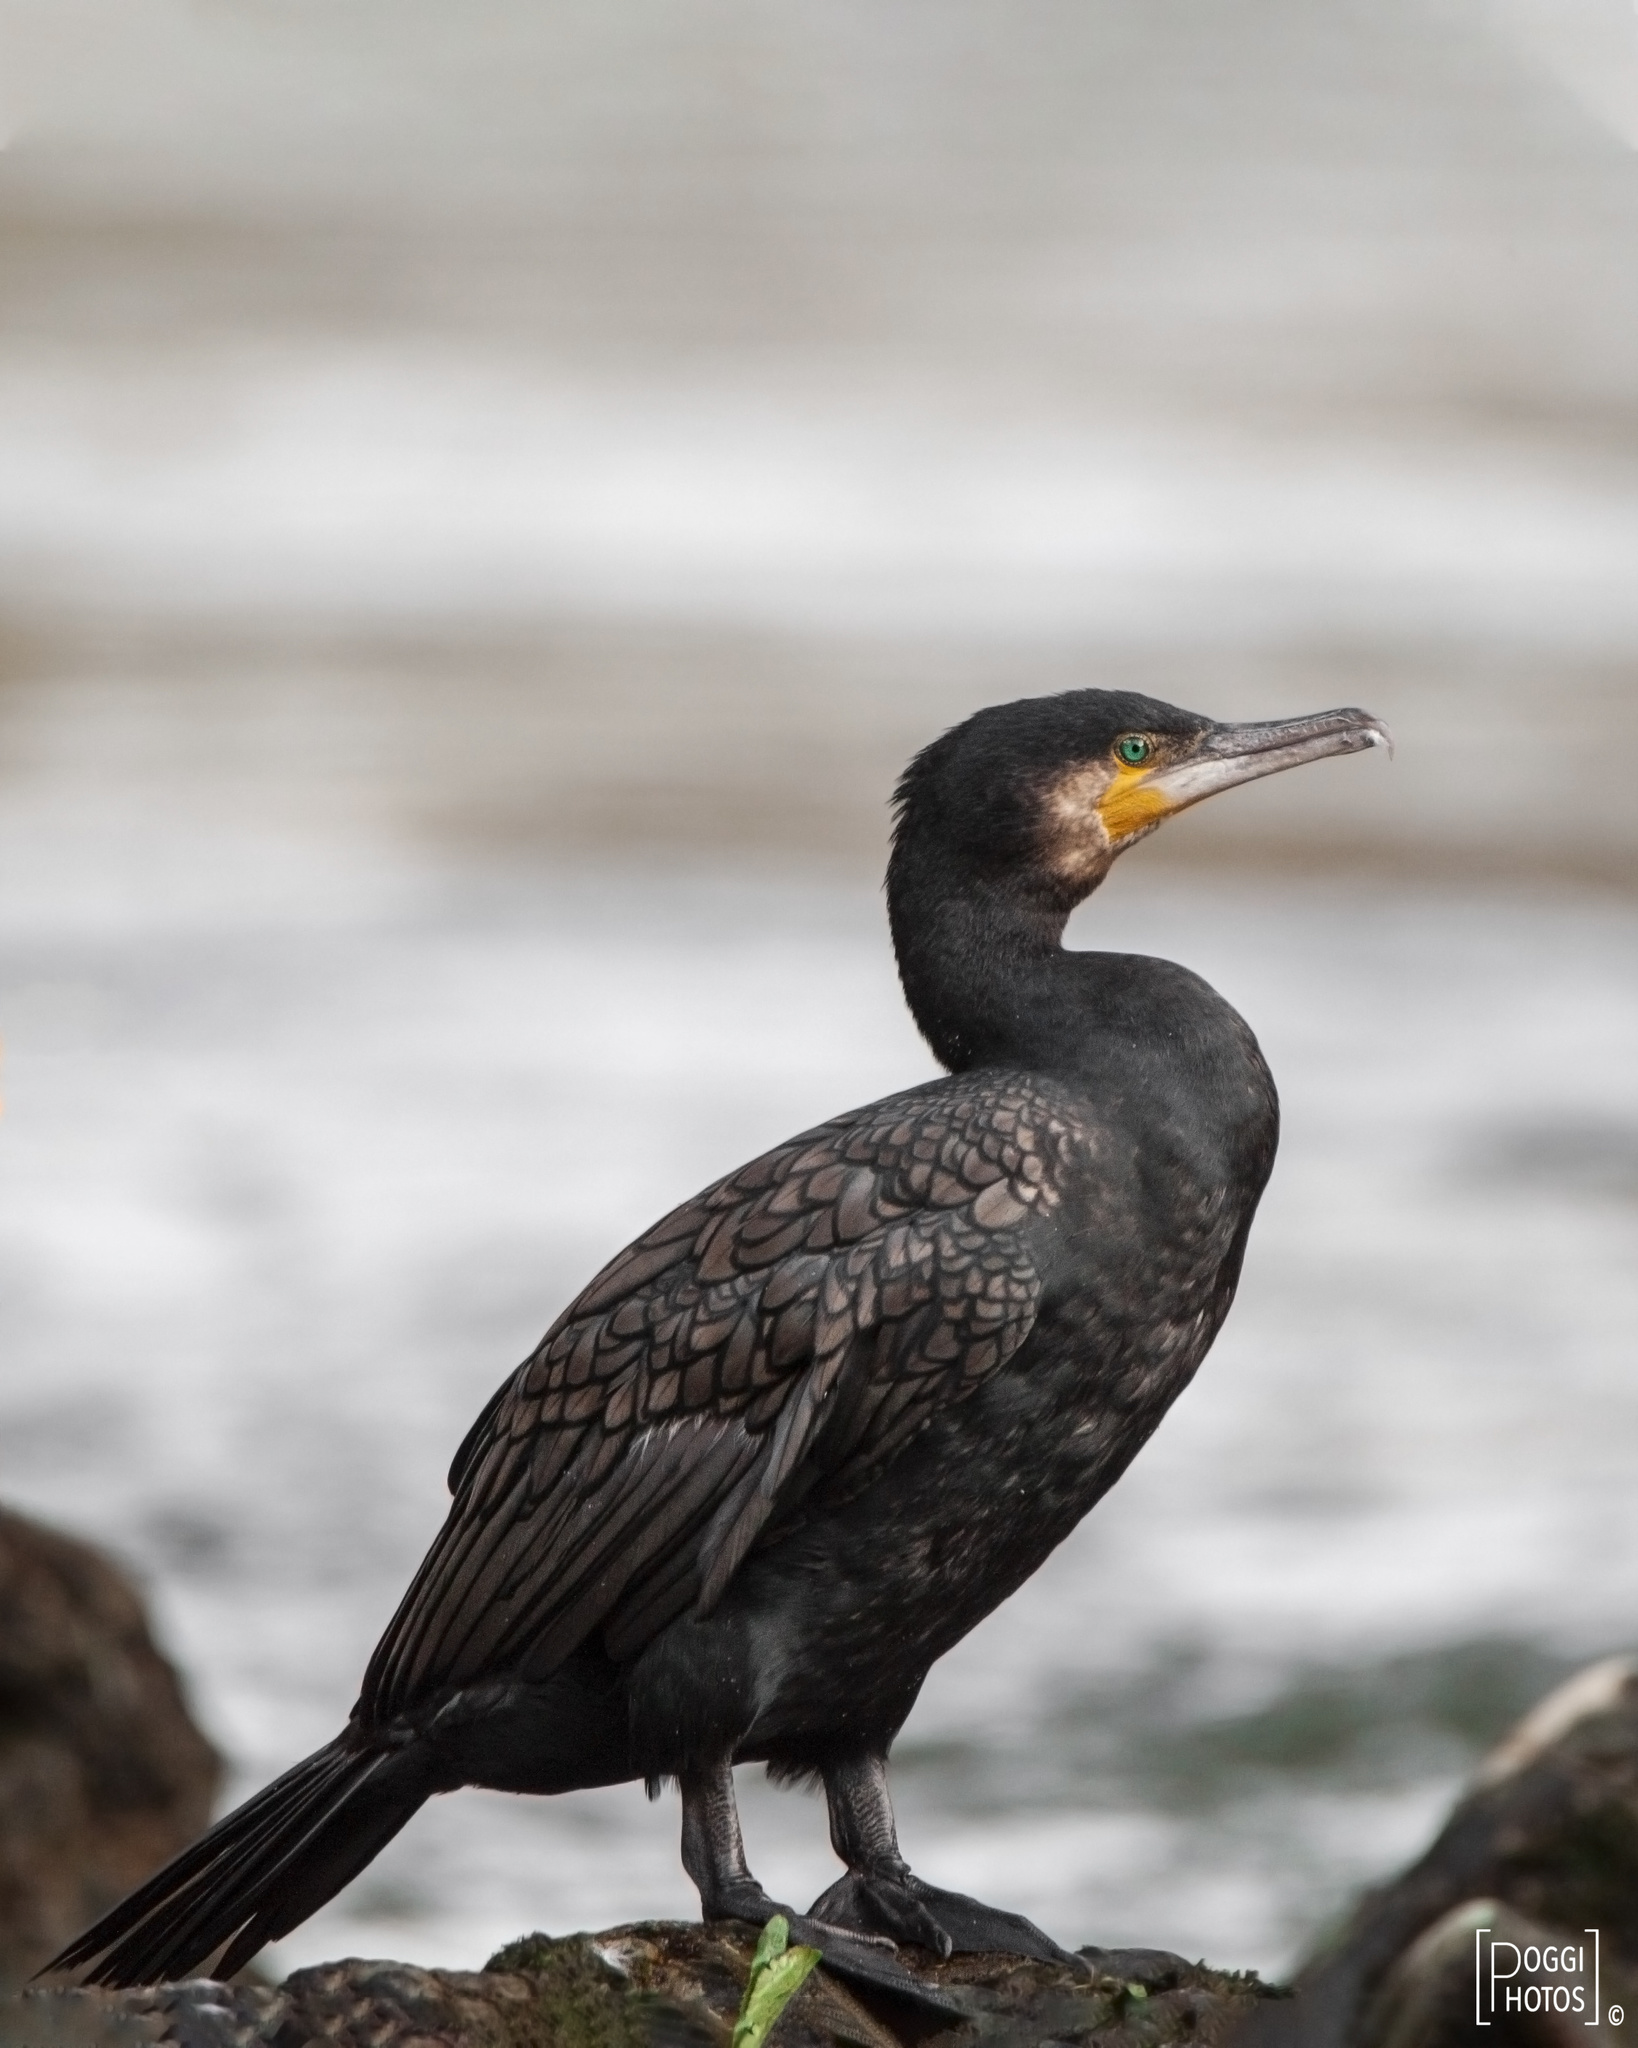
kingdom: Animalia
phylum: Chordata
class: Aves
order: Suliformes
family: Phalacrocoracidae
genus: Phalacrocorax
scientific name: Phalacrocorax carbo
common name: Great cormorant
